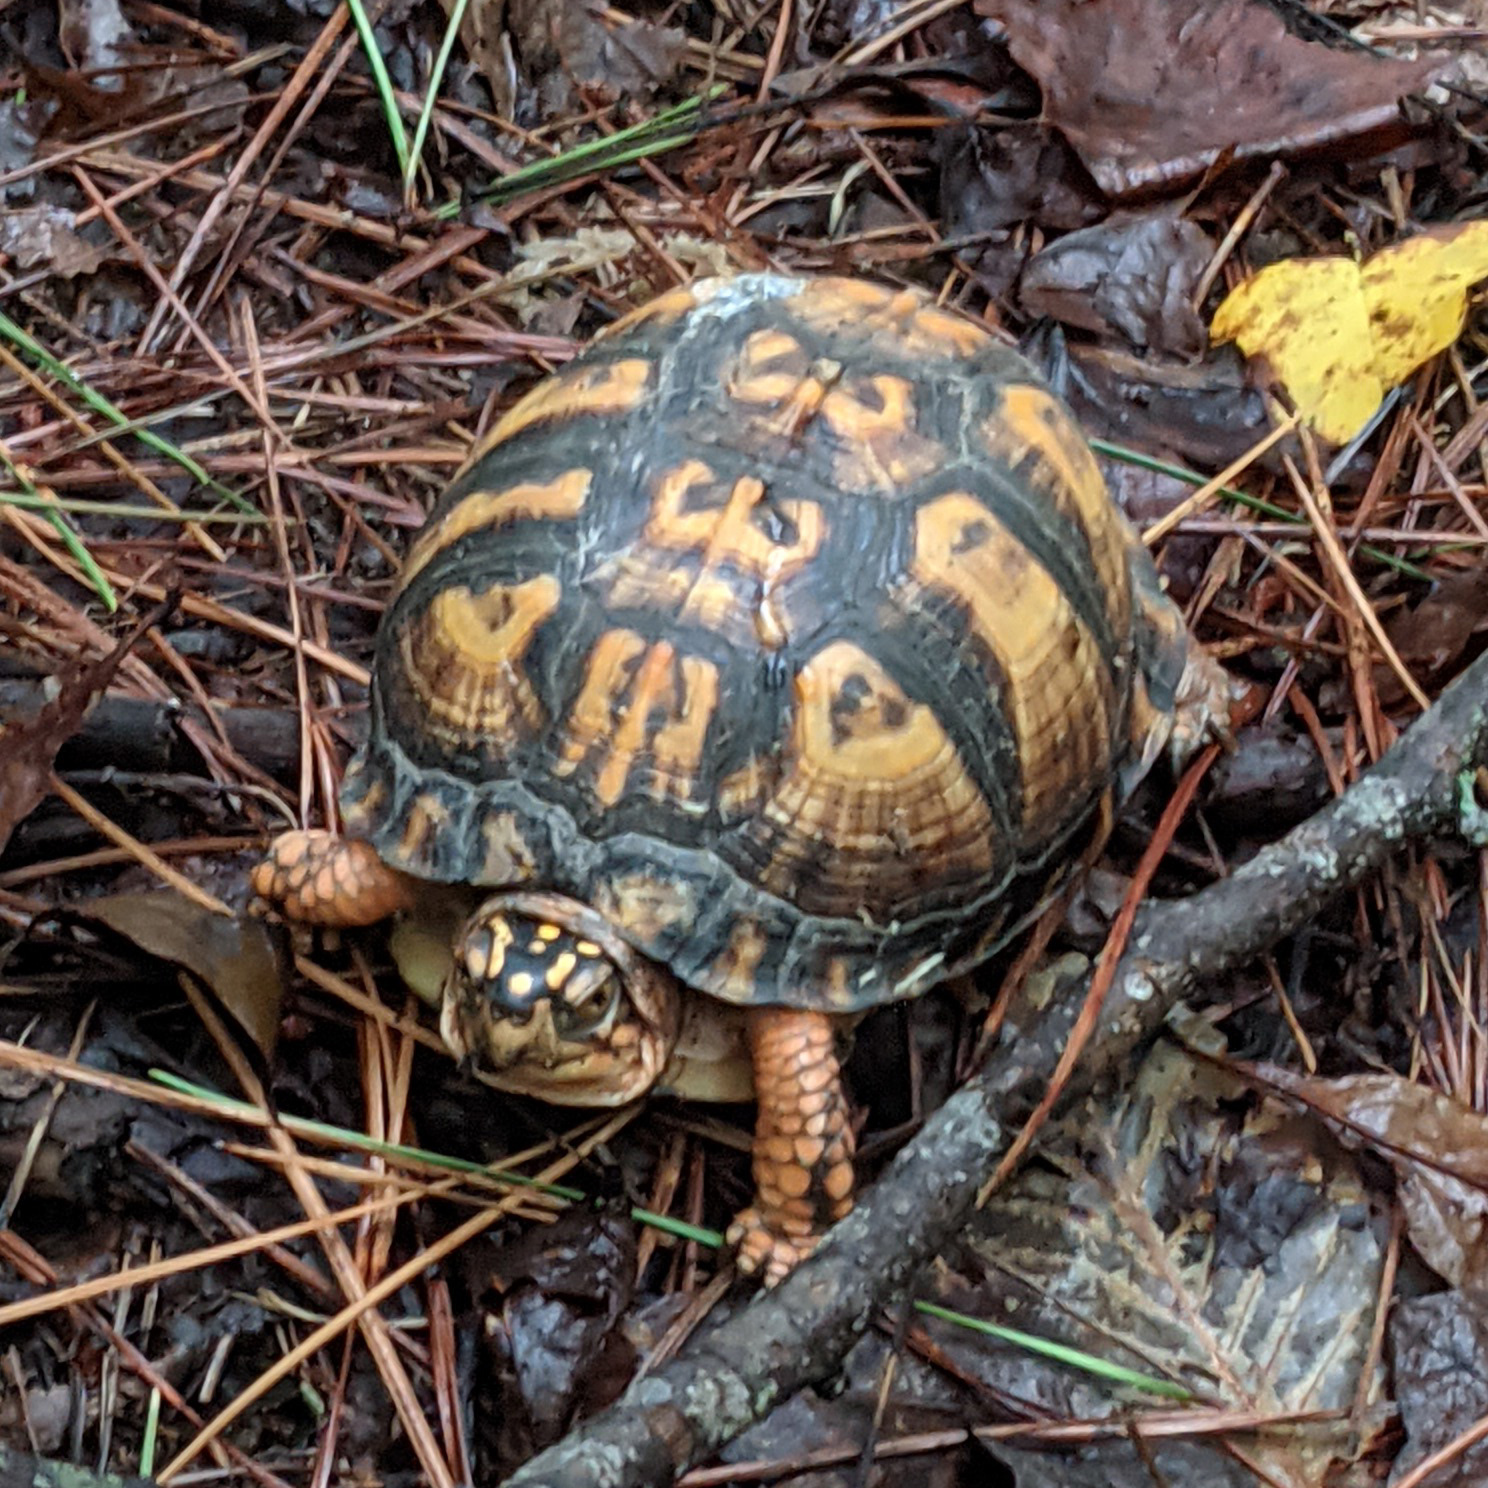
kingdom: Animalia
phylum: Chordata
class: Testudines
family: Emydidae
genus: Terrapene
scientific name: Terrapene carolina
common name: Common box turtle
